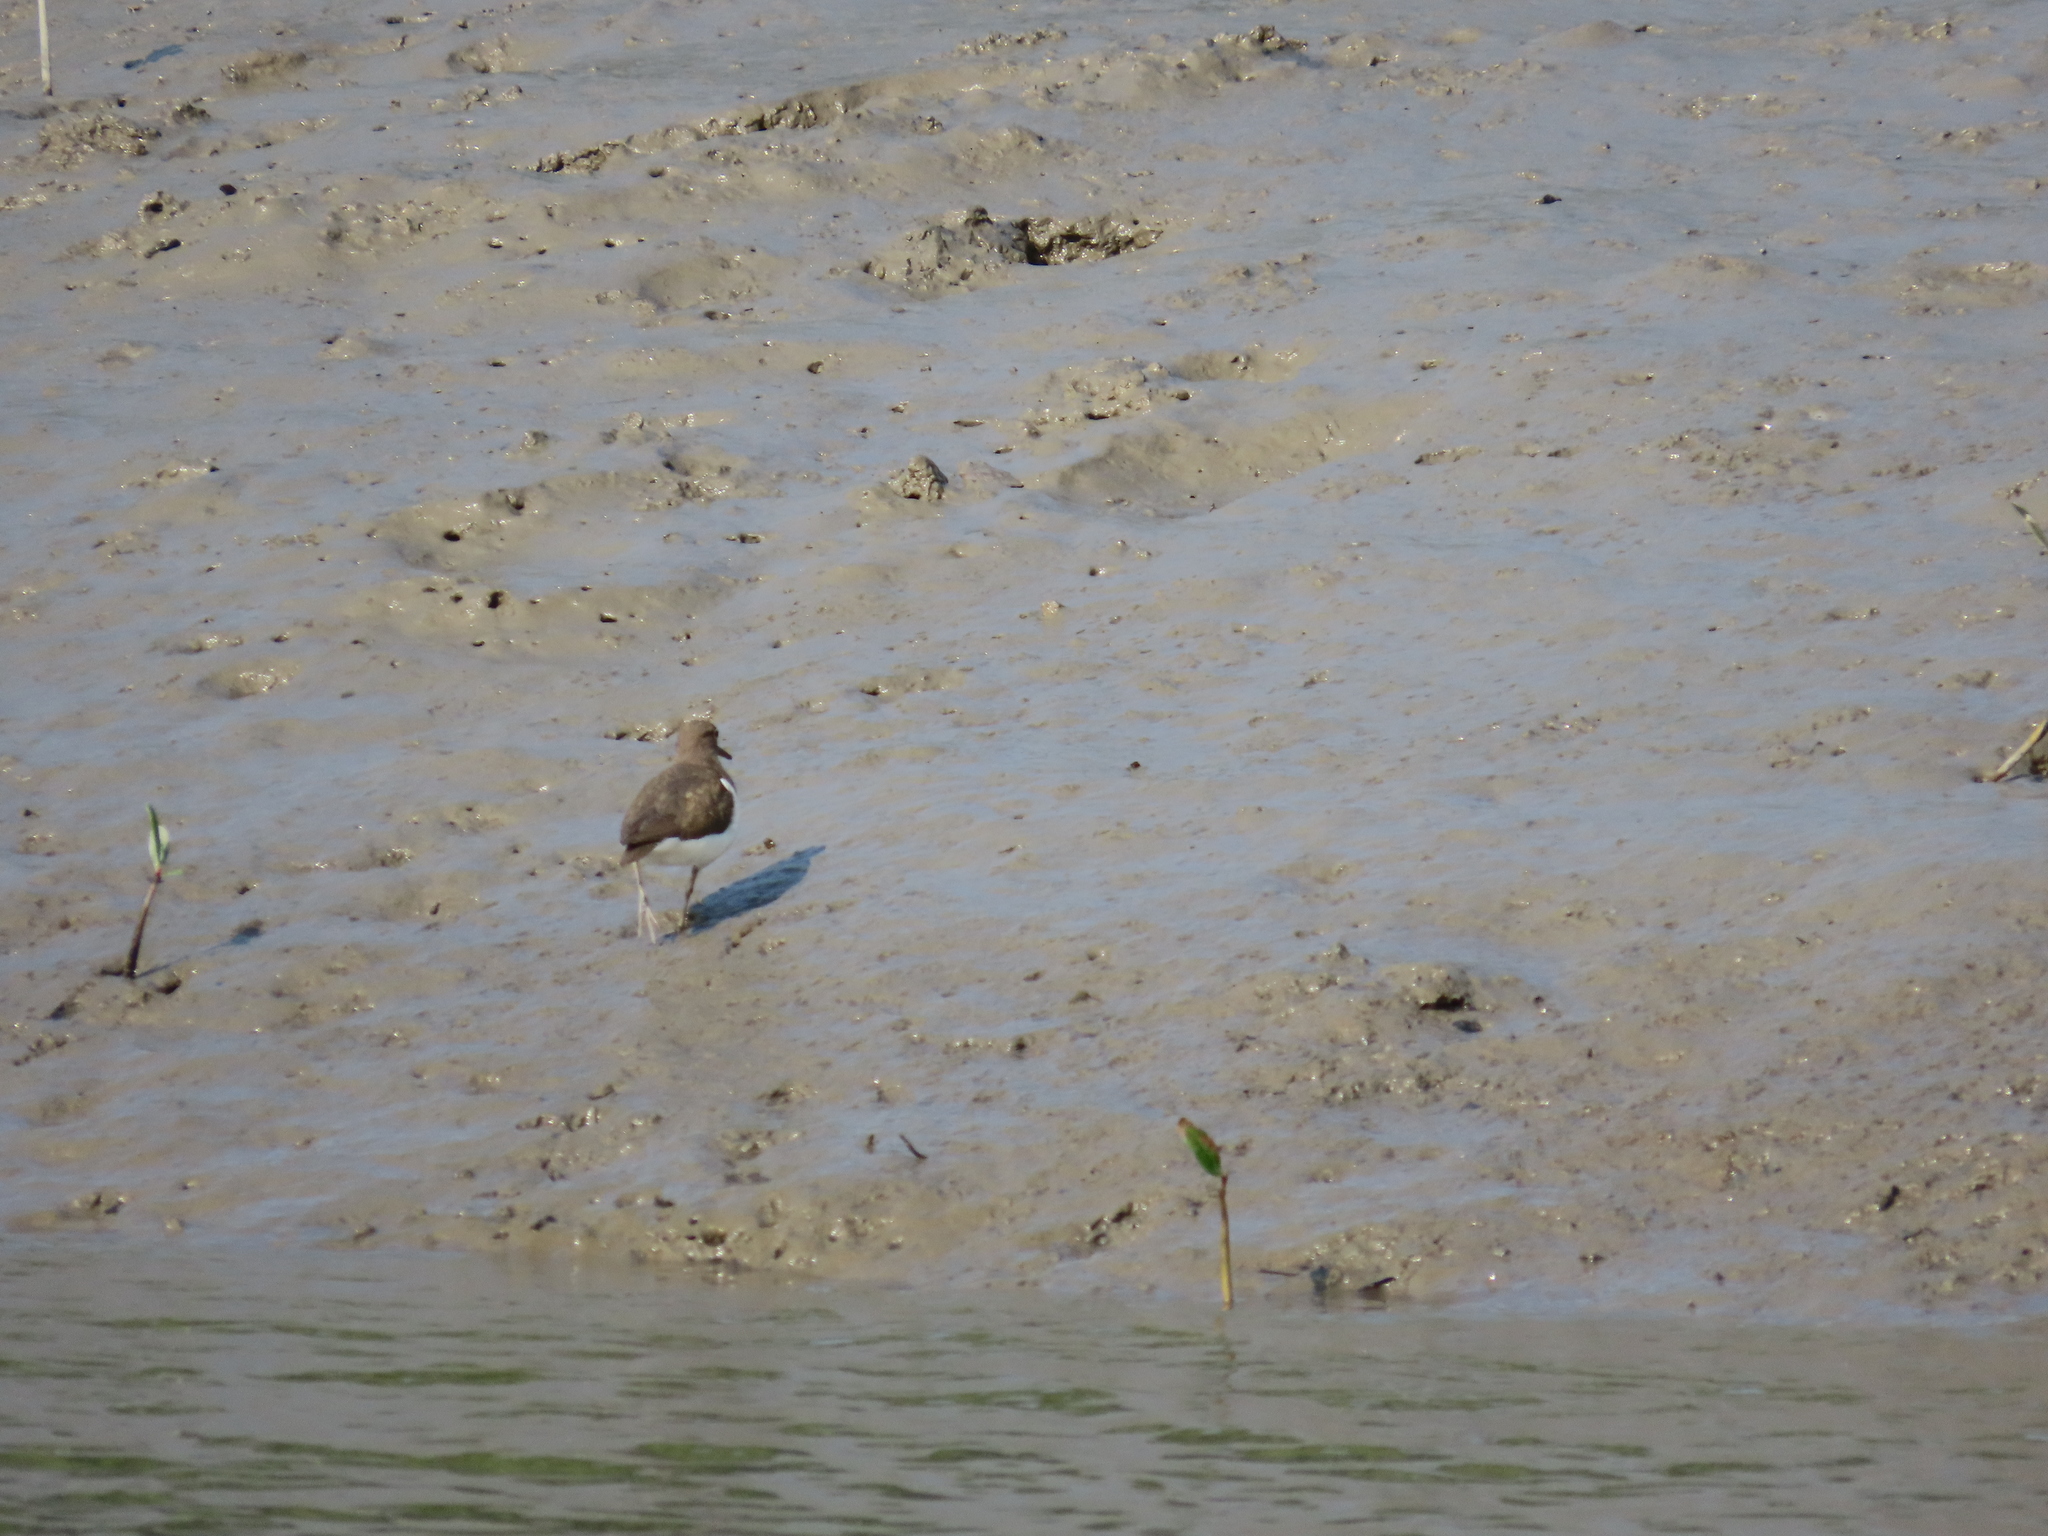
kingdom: Animalia
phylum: Chordata
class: Aves
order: Charadriiformes
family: Scolopacidae
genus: Actitis
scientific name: Actitis hypoleucos
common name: Common sandpiper
